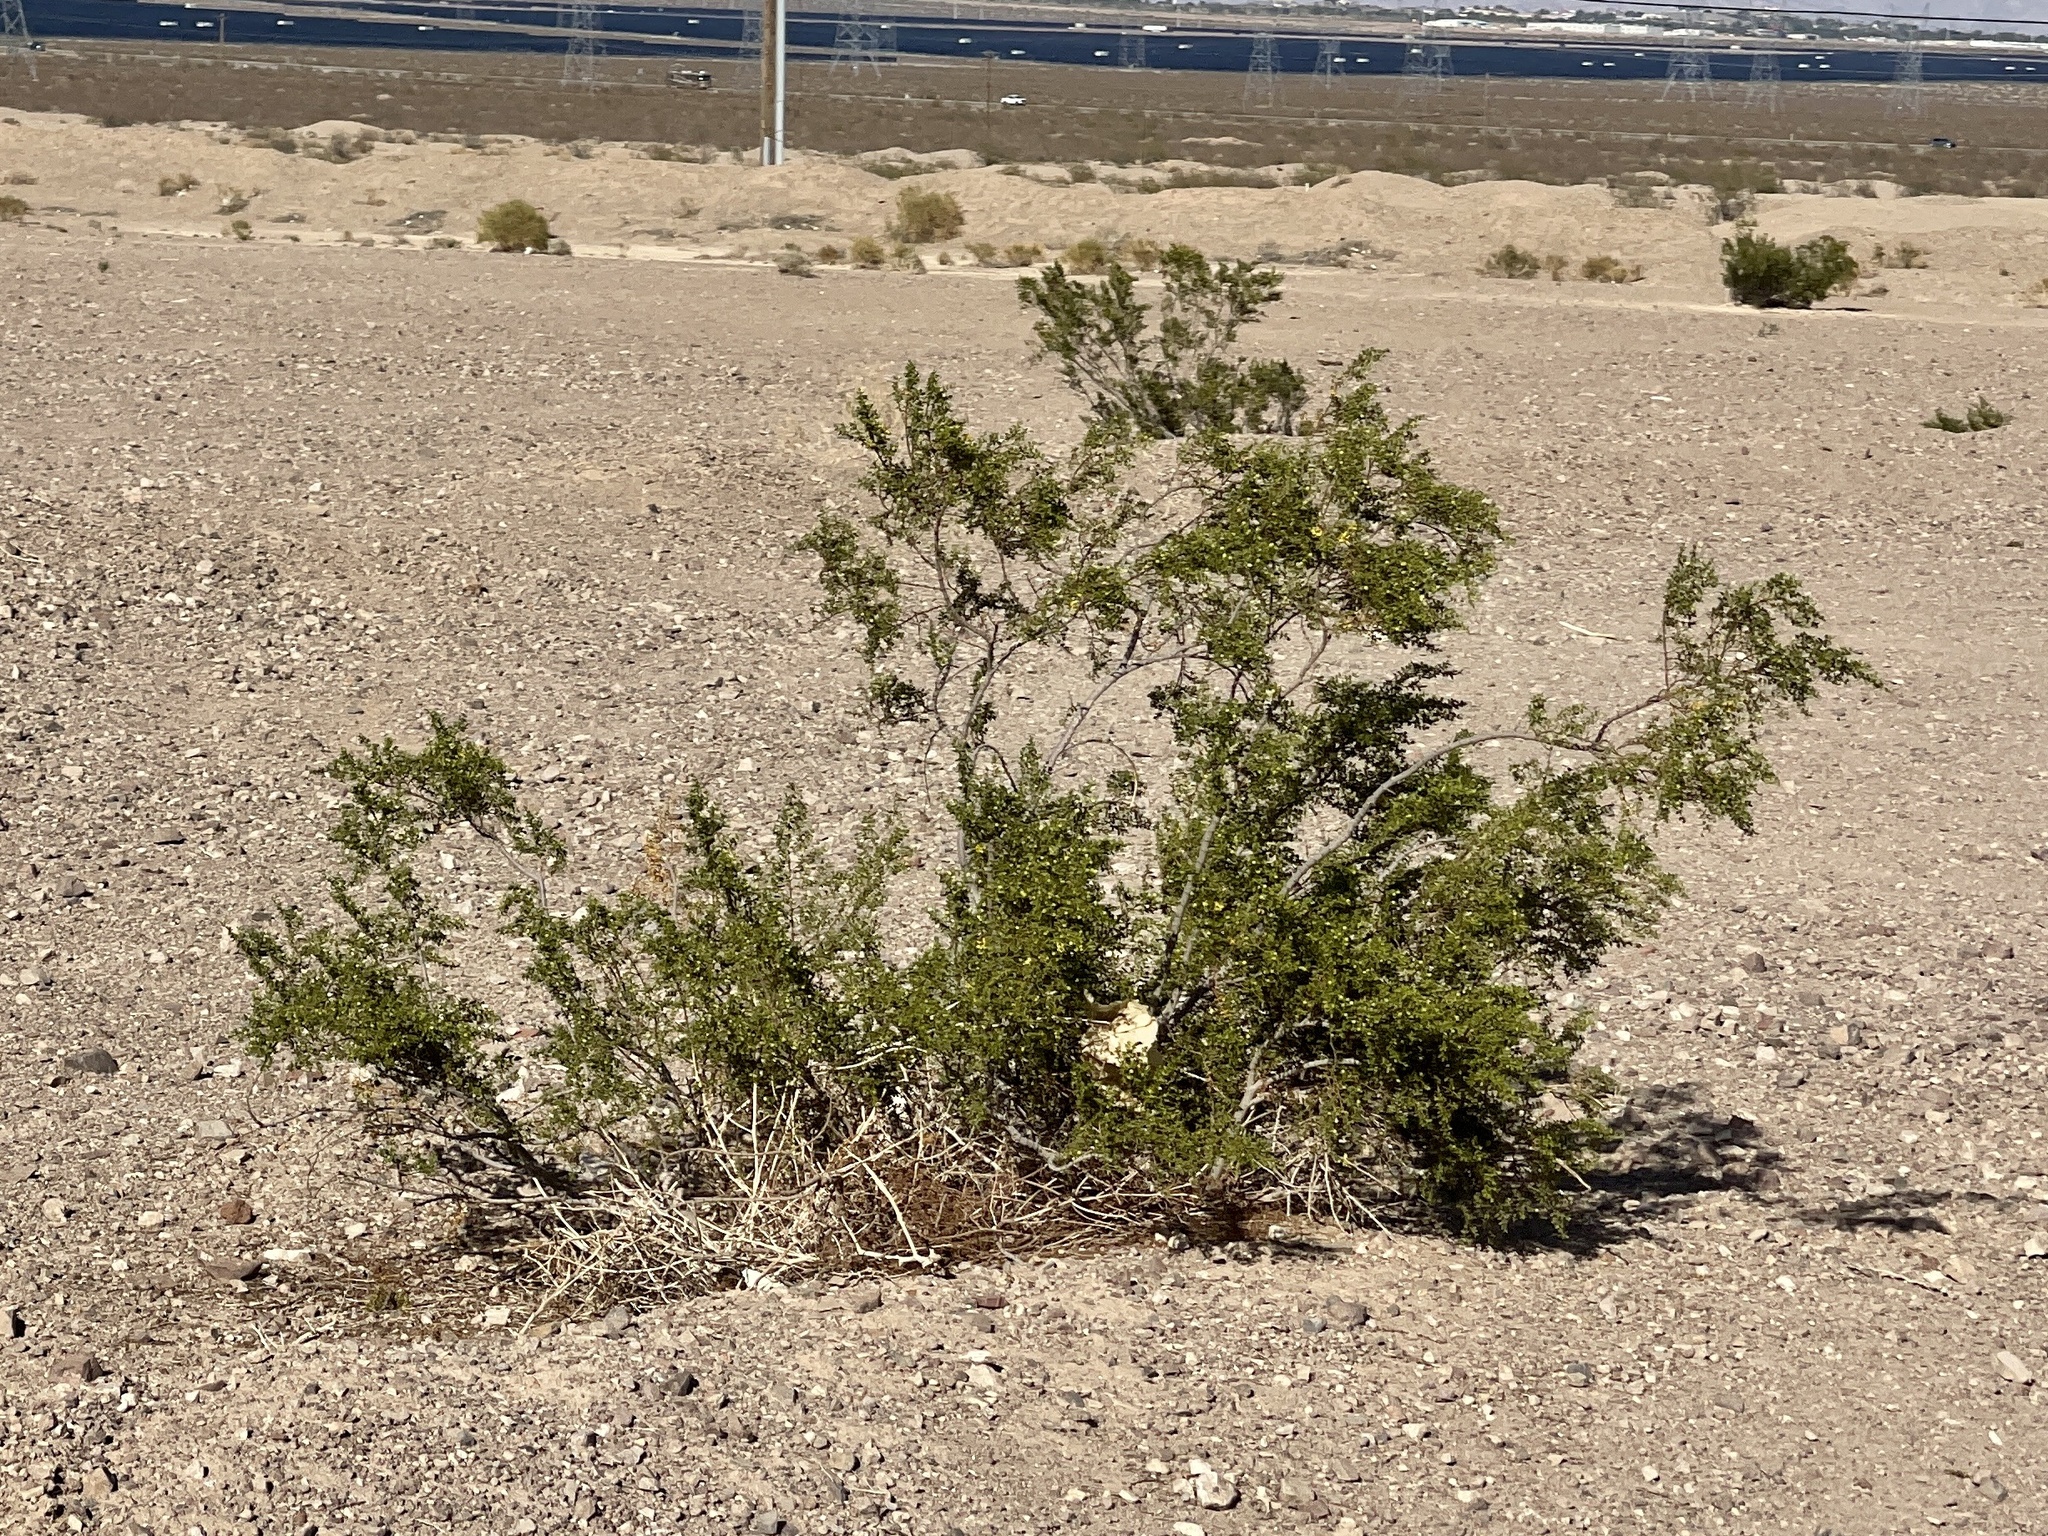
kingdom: Plantae
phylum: Tracheophyta
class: Magnoliopsida
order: Zygophyllales
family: Zygophyllaceae
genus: Larrea
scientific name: Larrea tridentata
